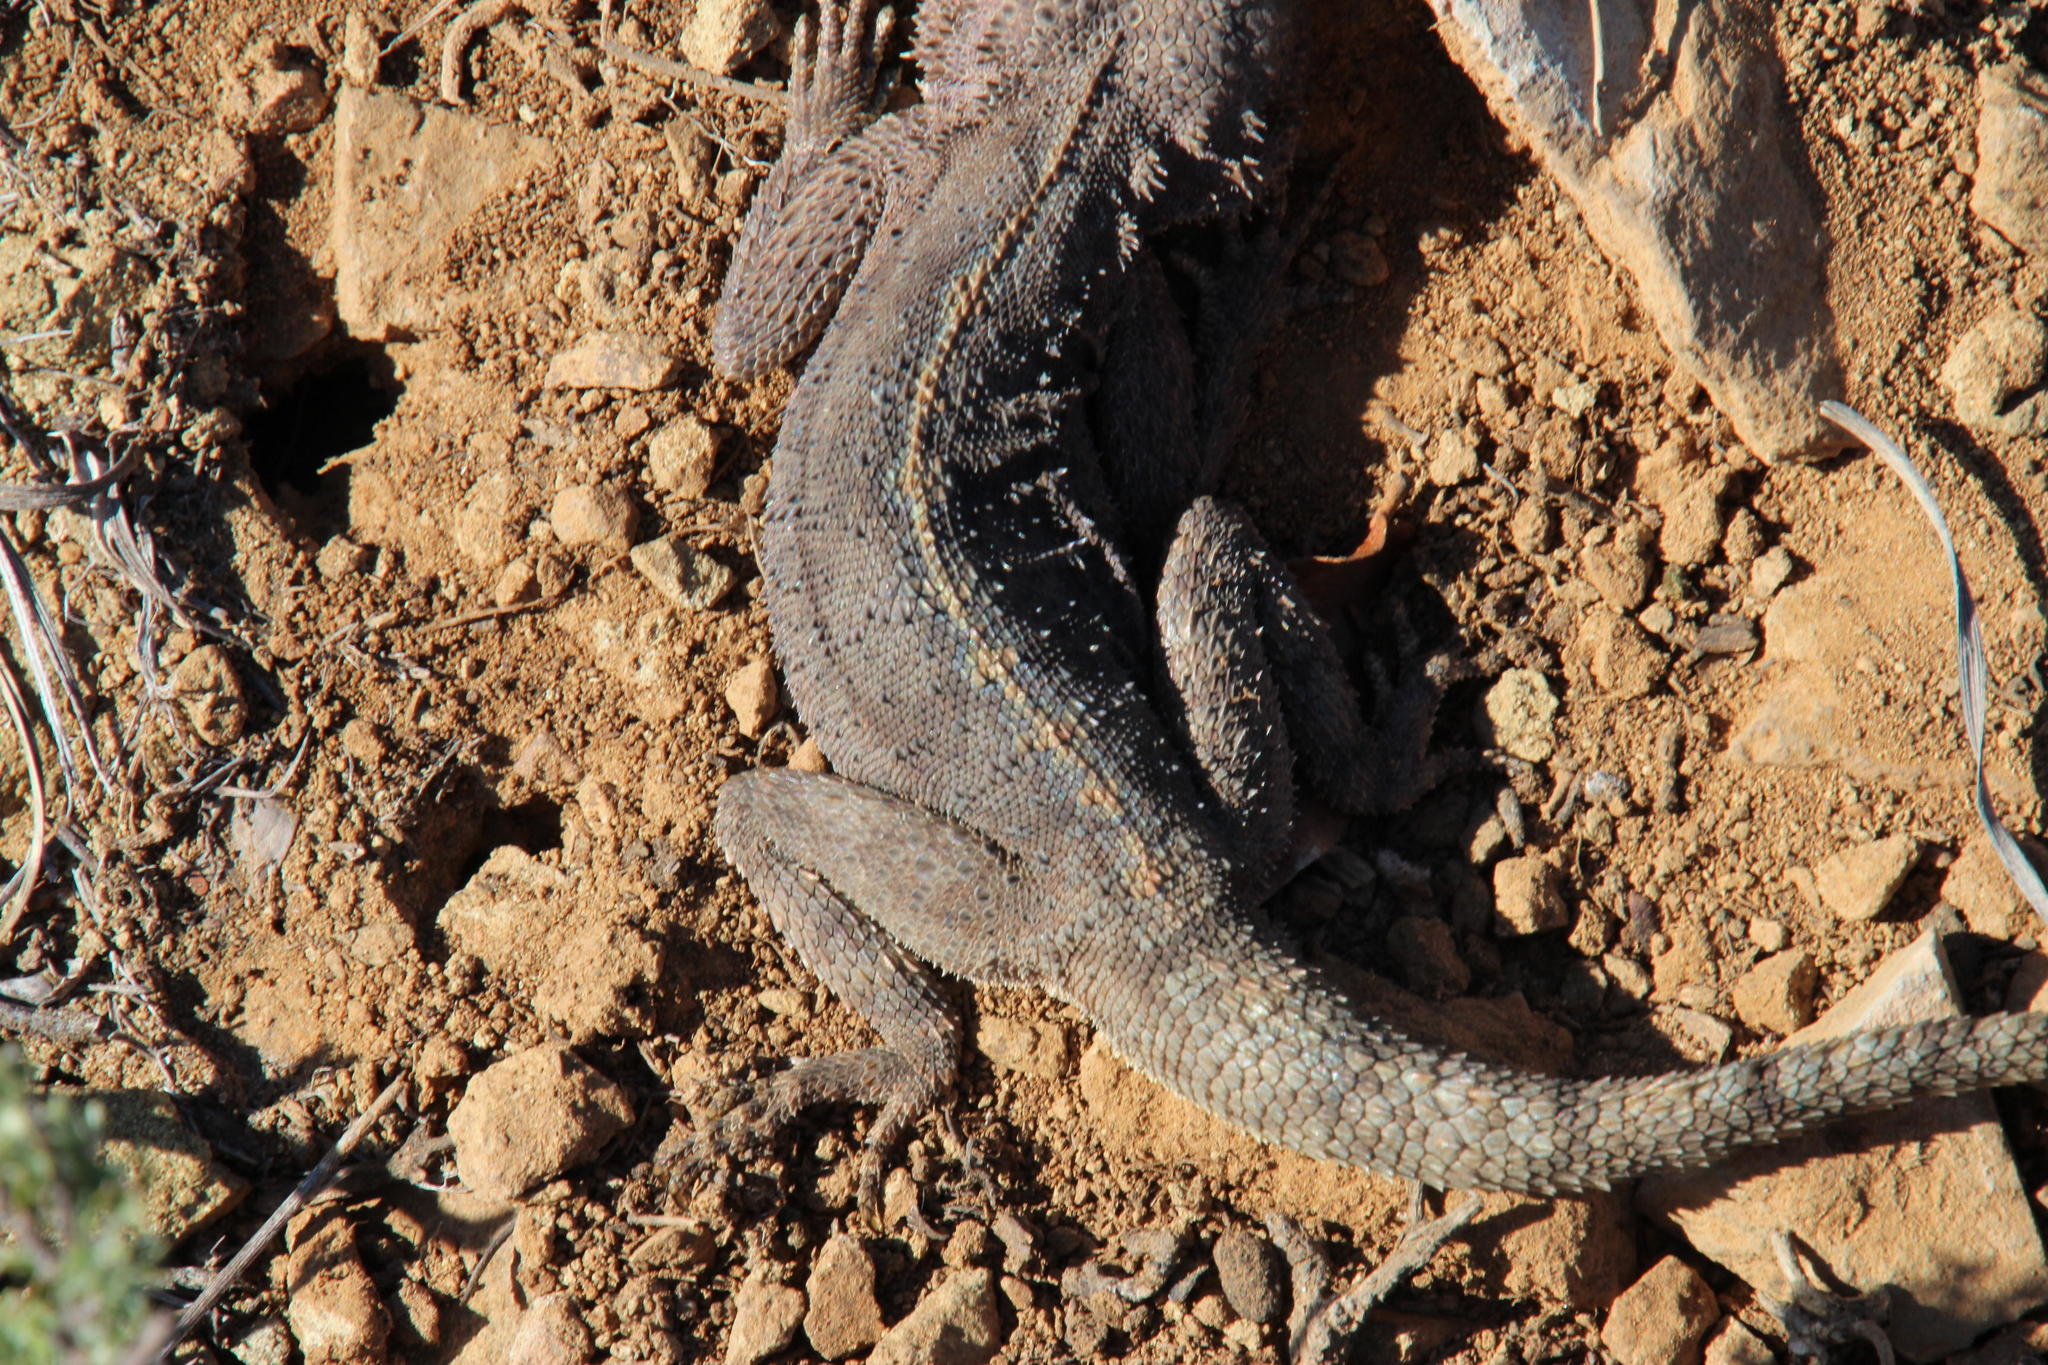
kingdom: Animalia
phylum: Chordata
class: Squamata
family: Agamidae
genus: Agama
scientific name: Agama atra
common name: Southern african rock agama
